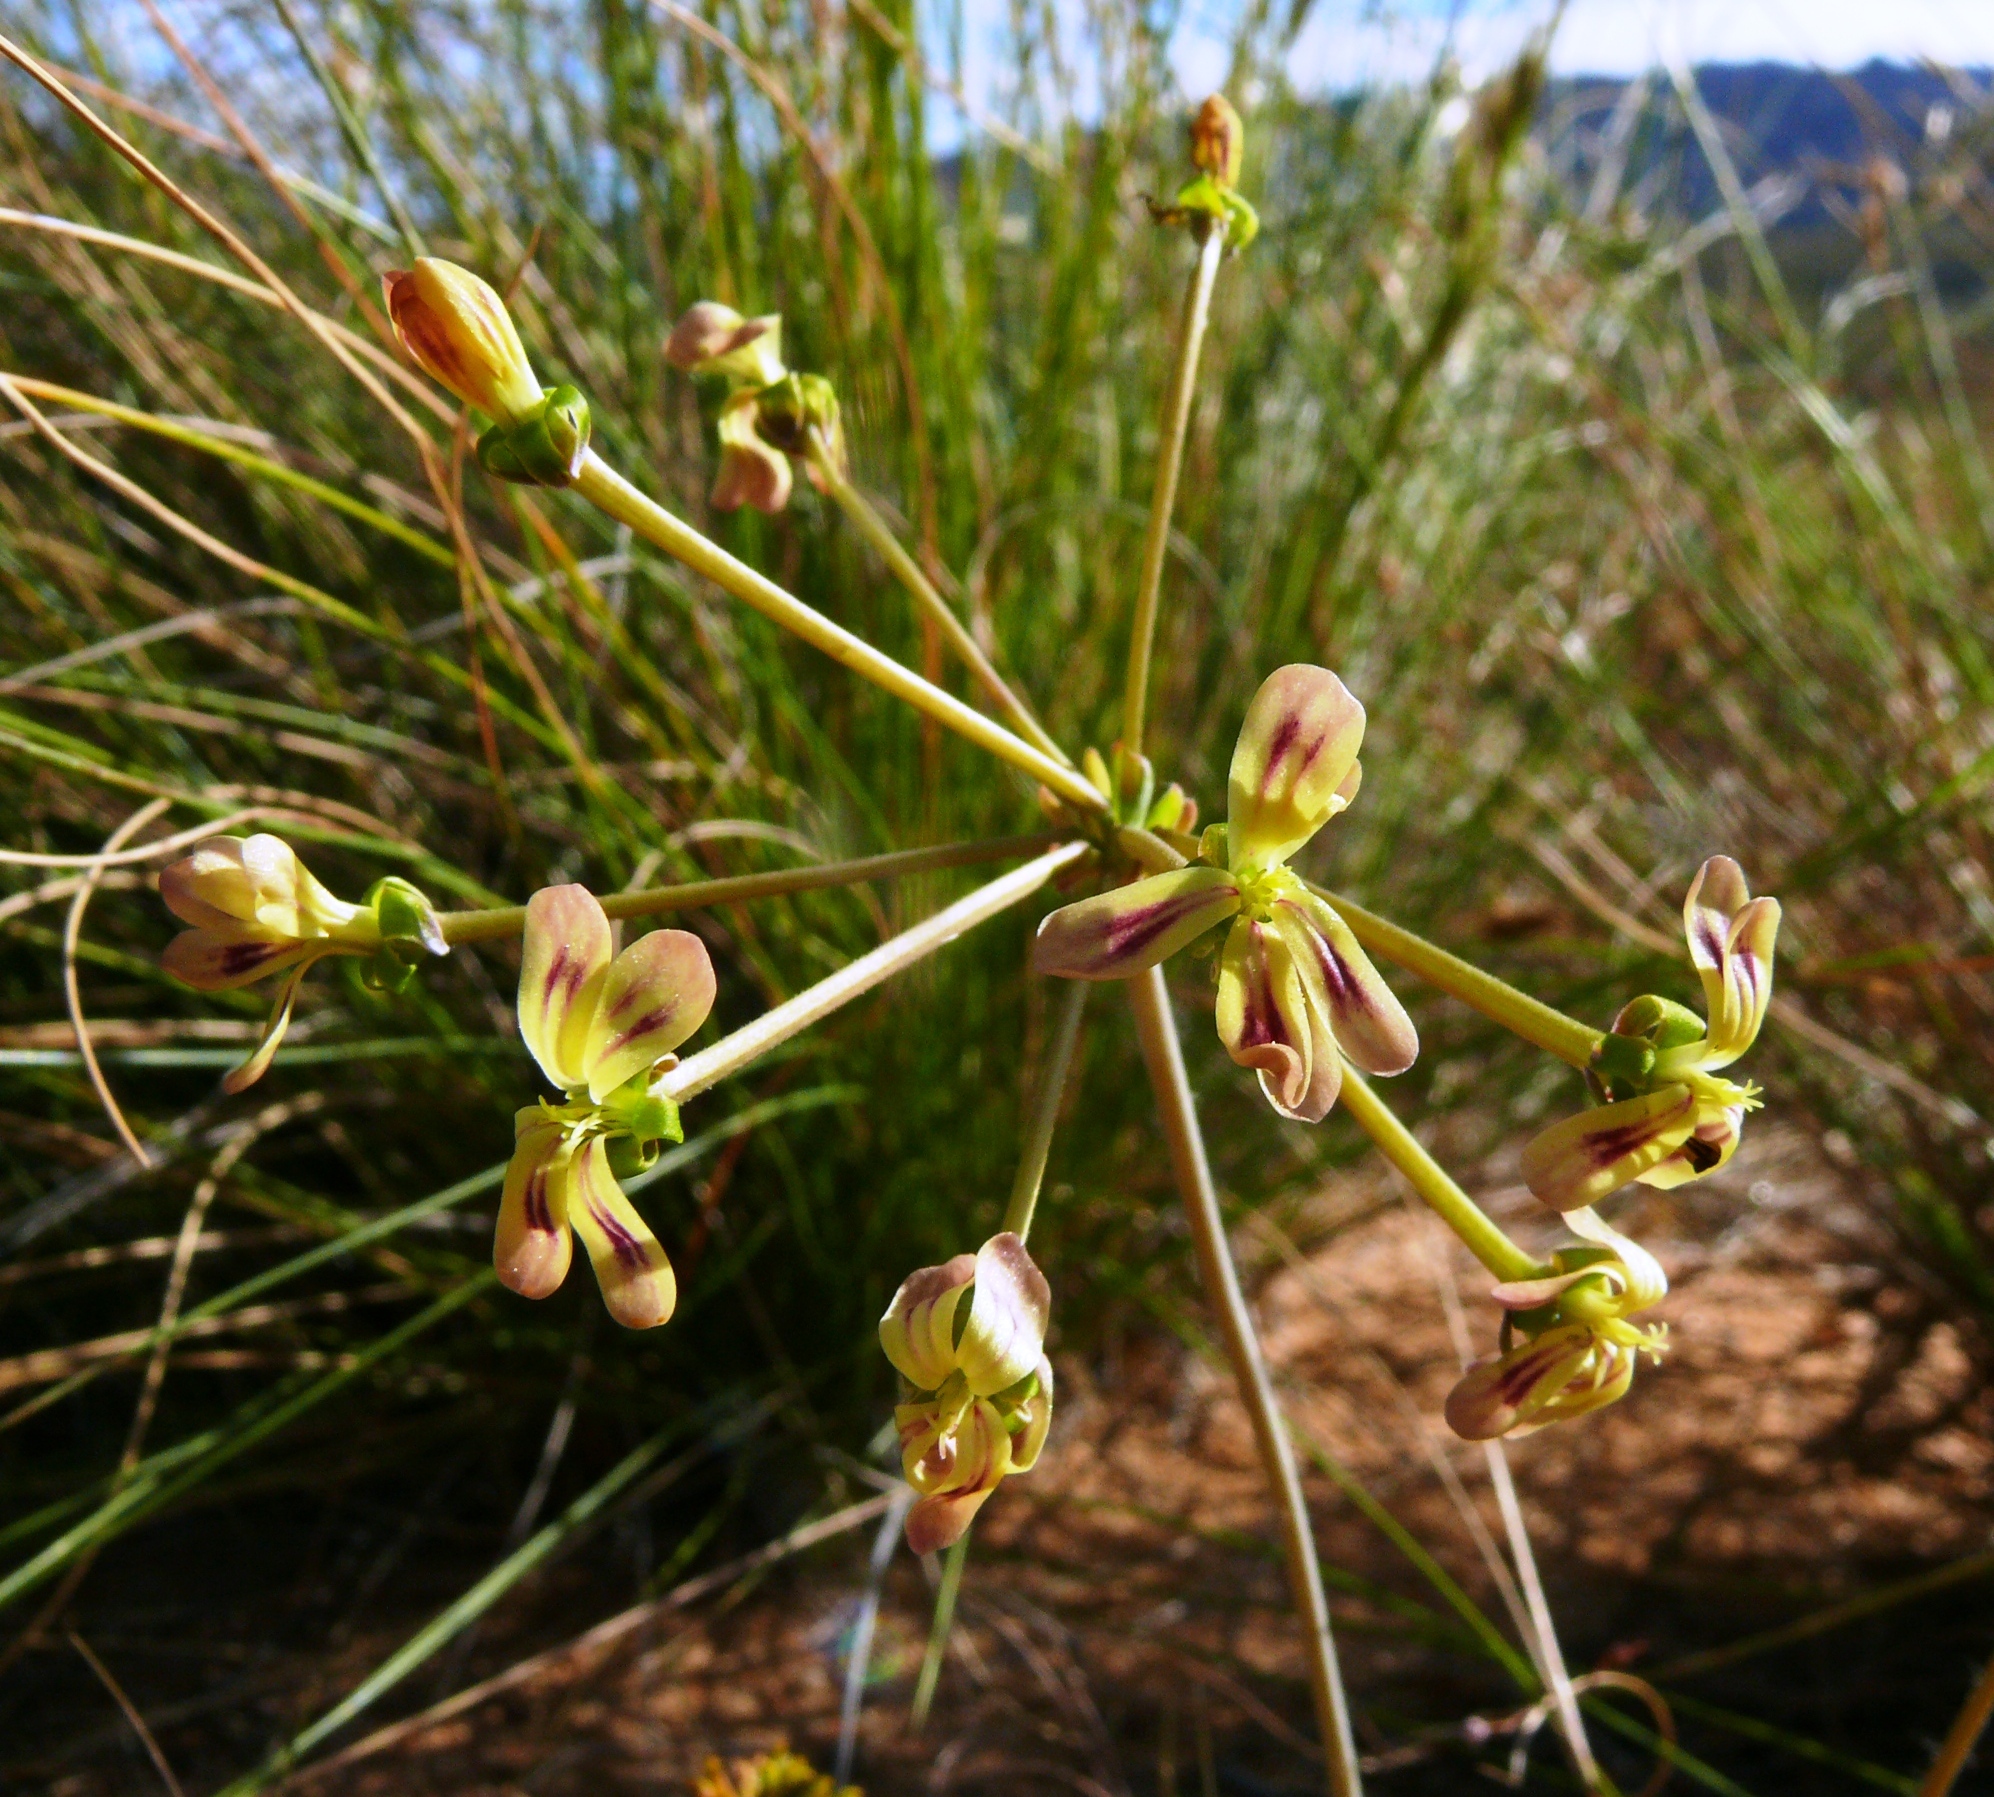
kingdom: Plantae
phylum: Tracheophyta
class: Magnoliopsida
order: Geraniales
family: Geraniaceae
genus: Pelargonium
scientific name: Pelargonium triste
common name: Night-scent pelargonium
